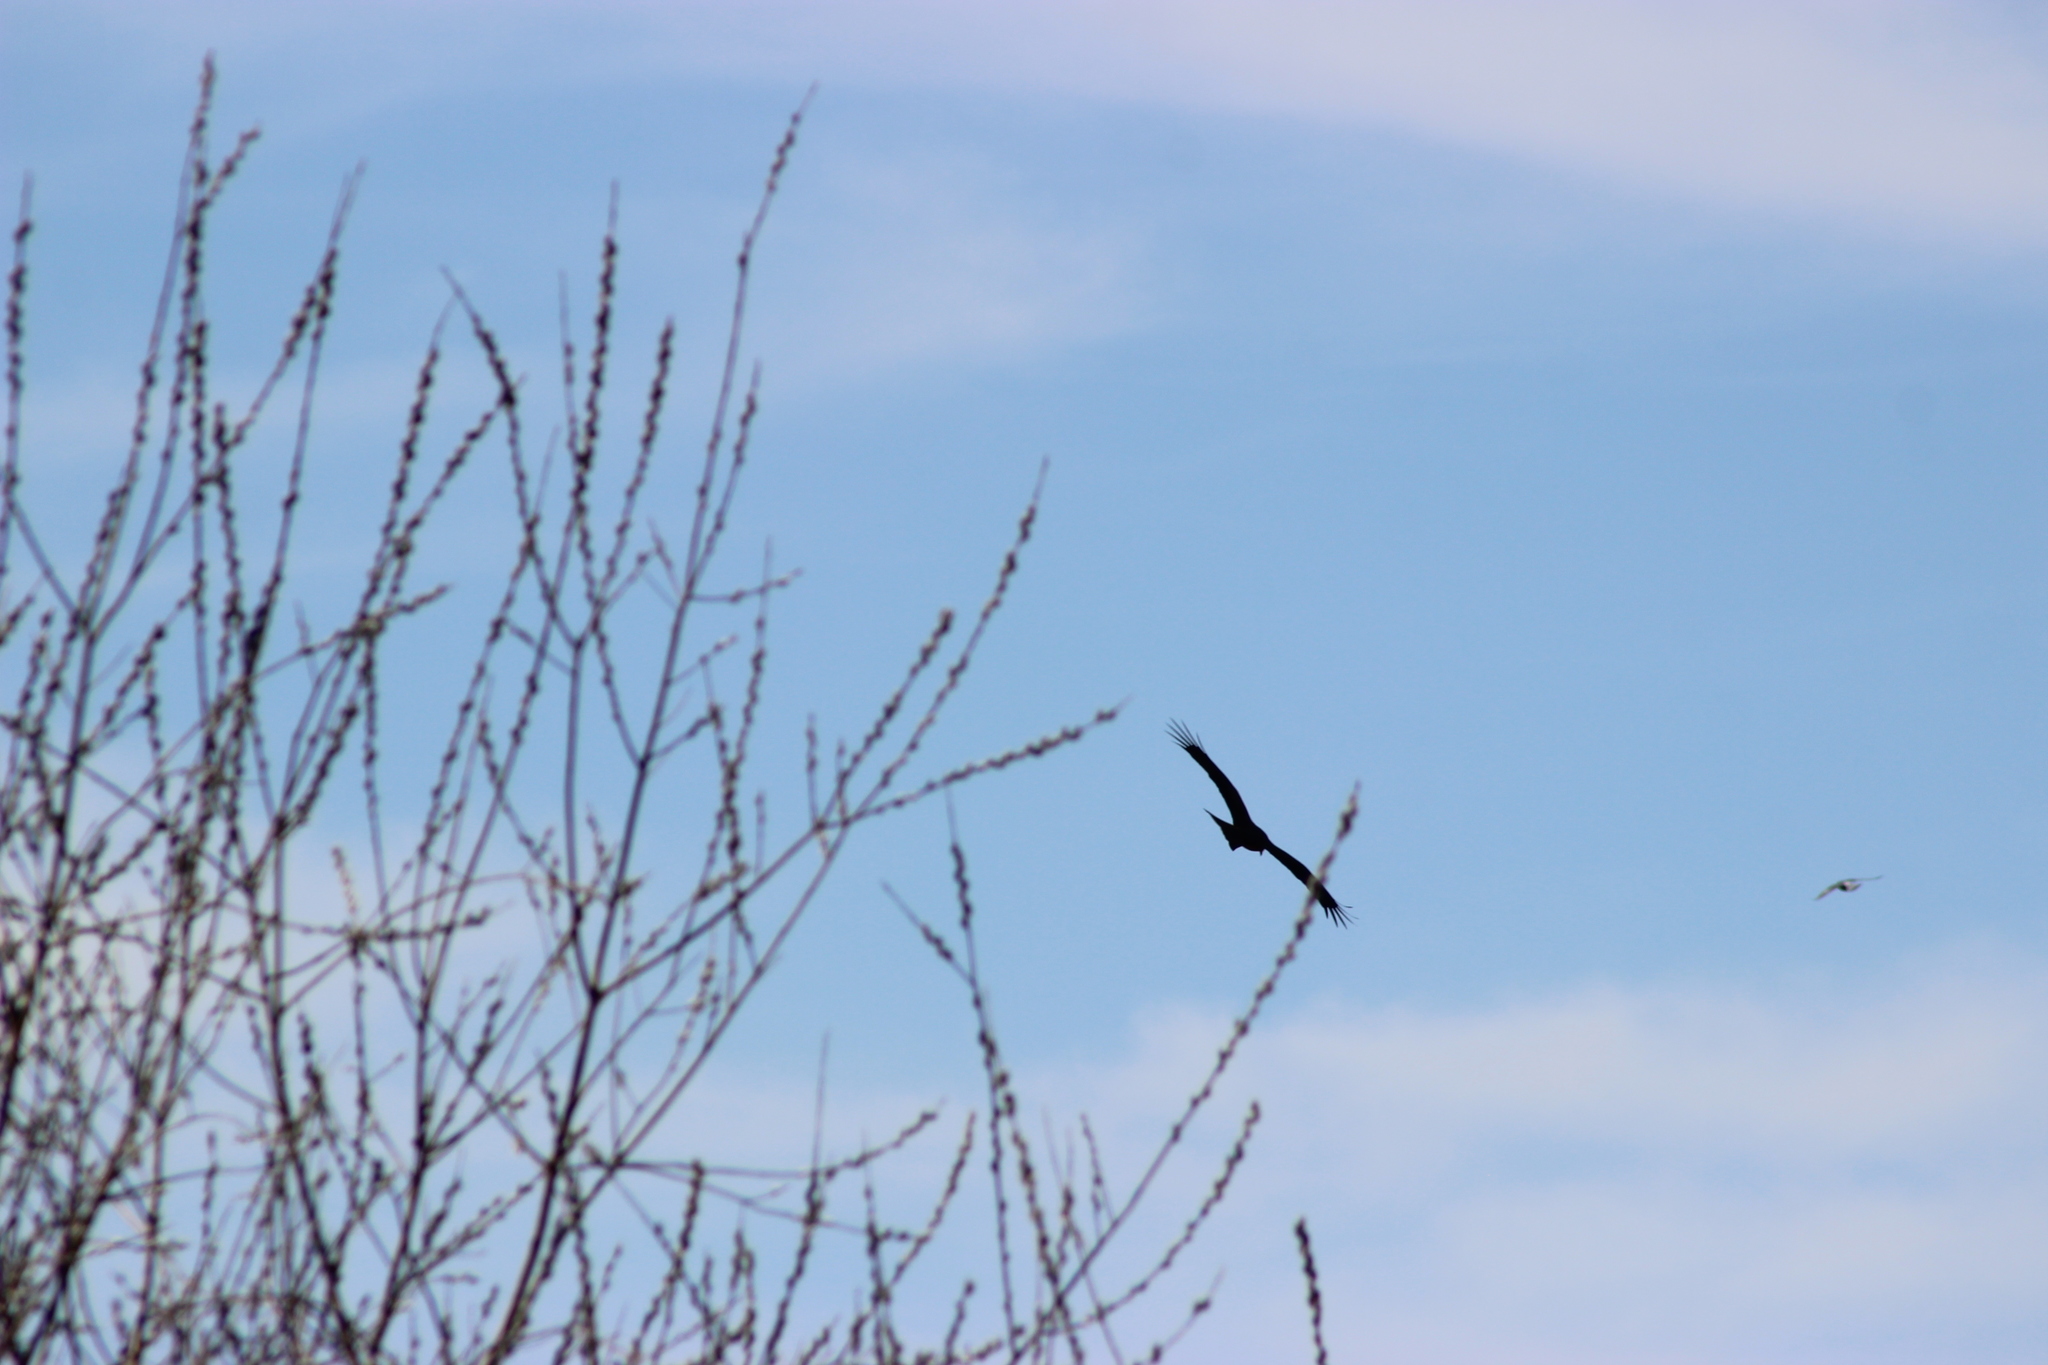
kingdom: Animalia
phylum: Chordata
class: Aves
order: Accipitriformes
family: Accipitridae
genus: Milvus
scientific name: Milvus migrans
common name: Black kite
